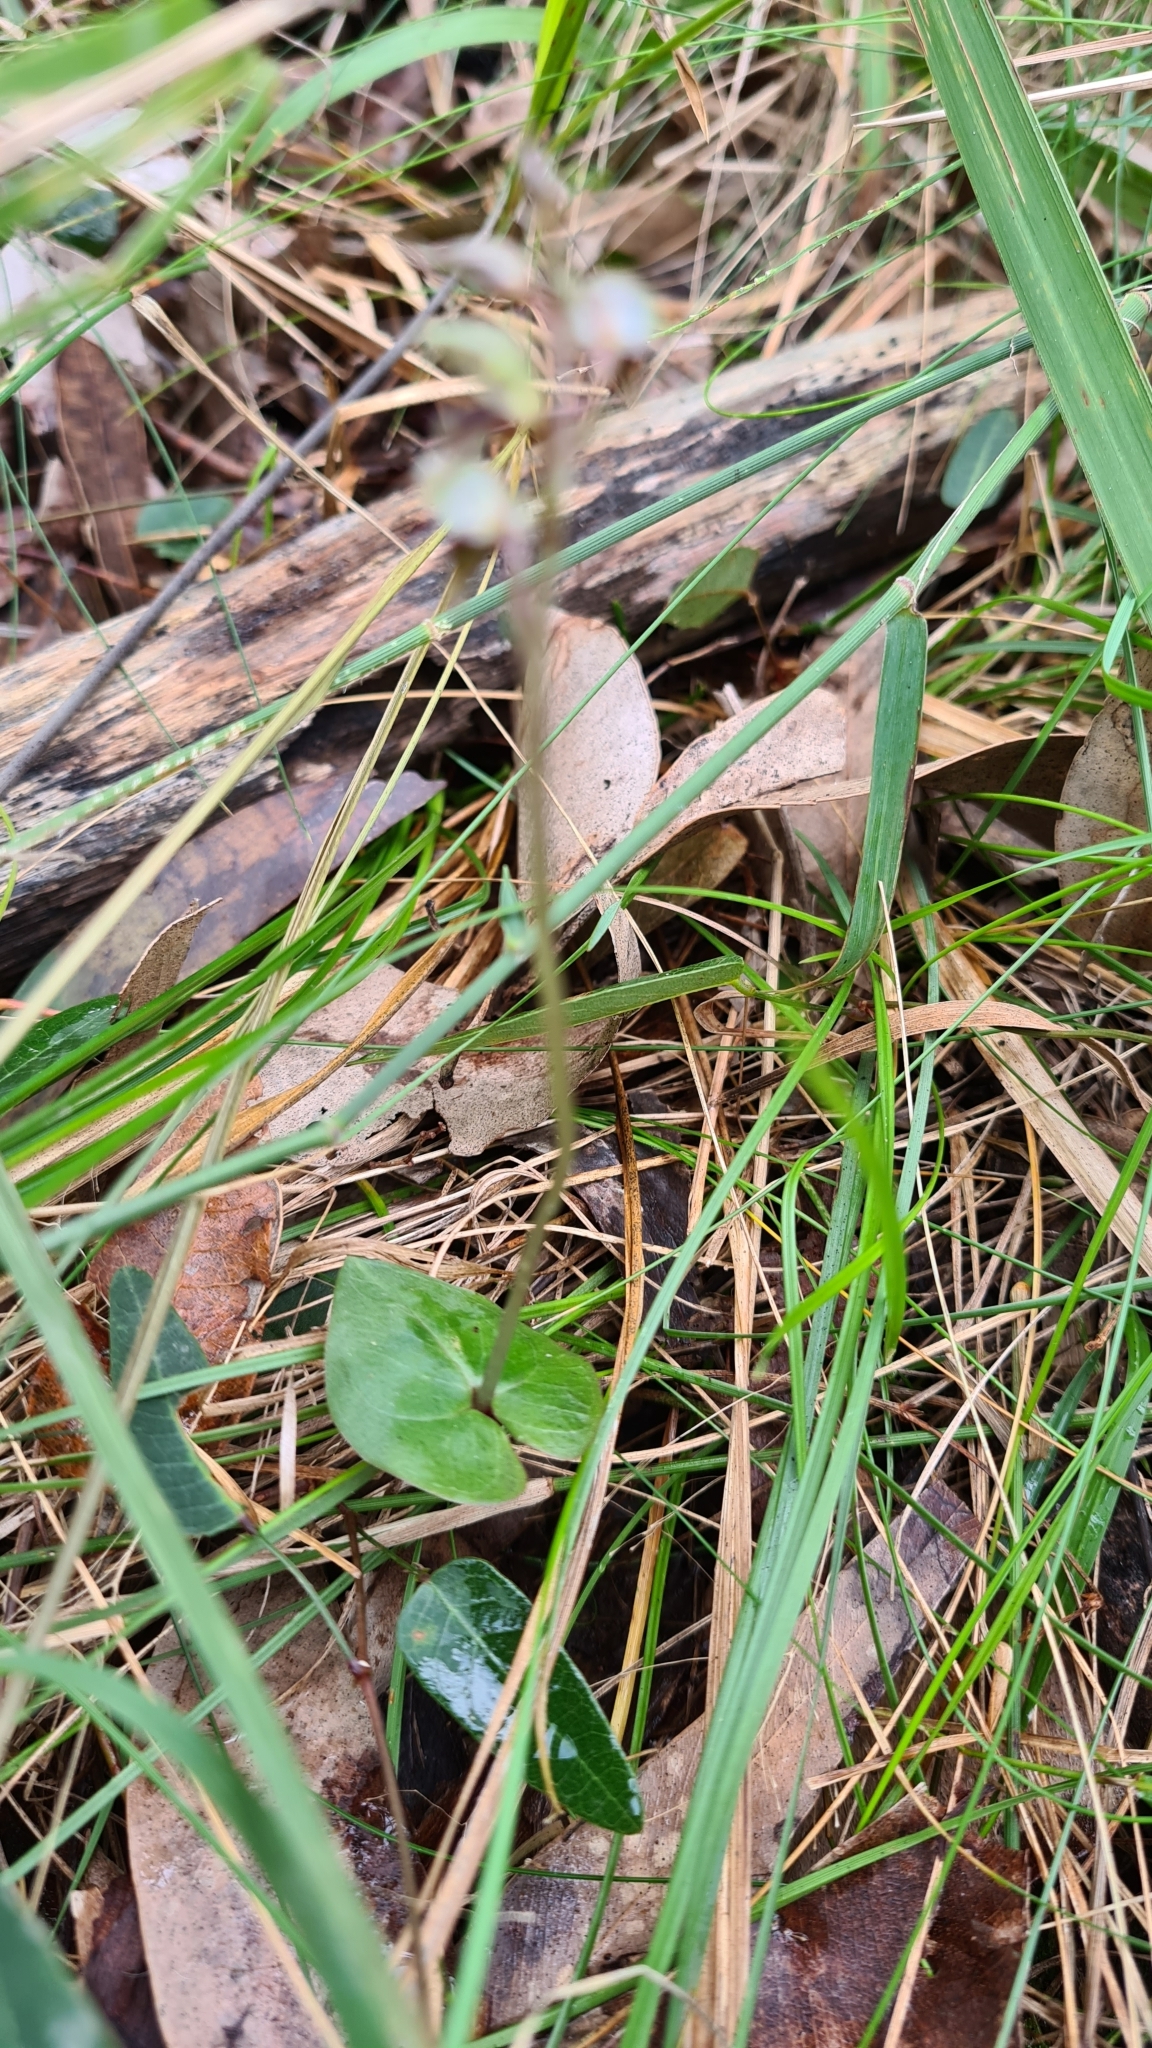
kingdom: Plantae
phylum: Tracheophyta
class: Liliopsida
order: Asparagales
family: Orchidaceae
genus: Acianthus
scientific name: Acianthus fornicatus
